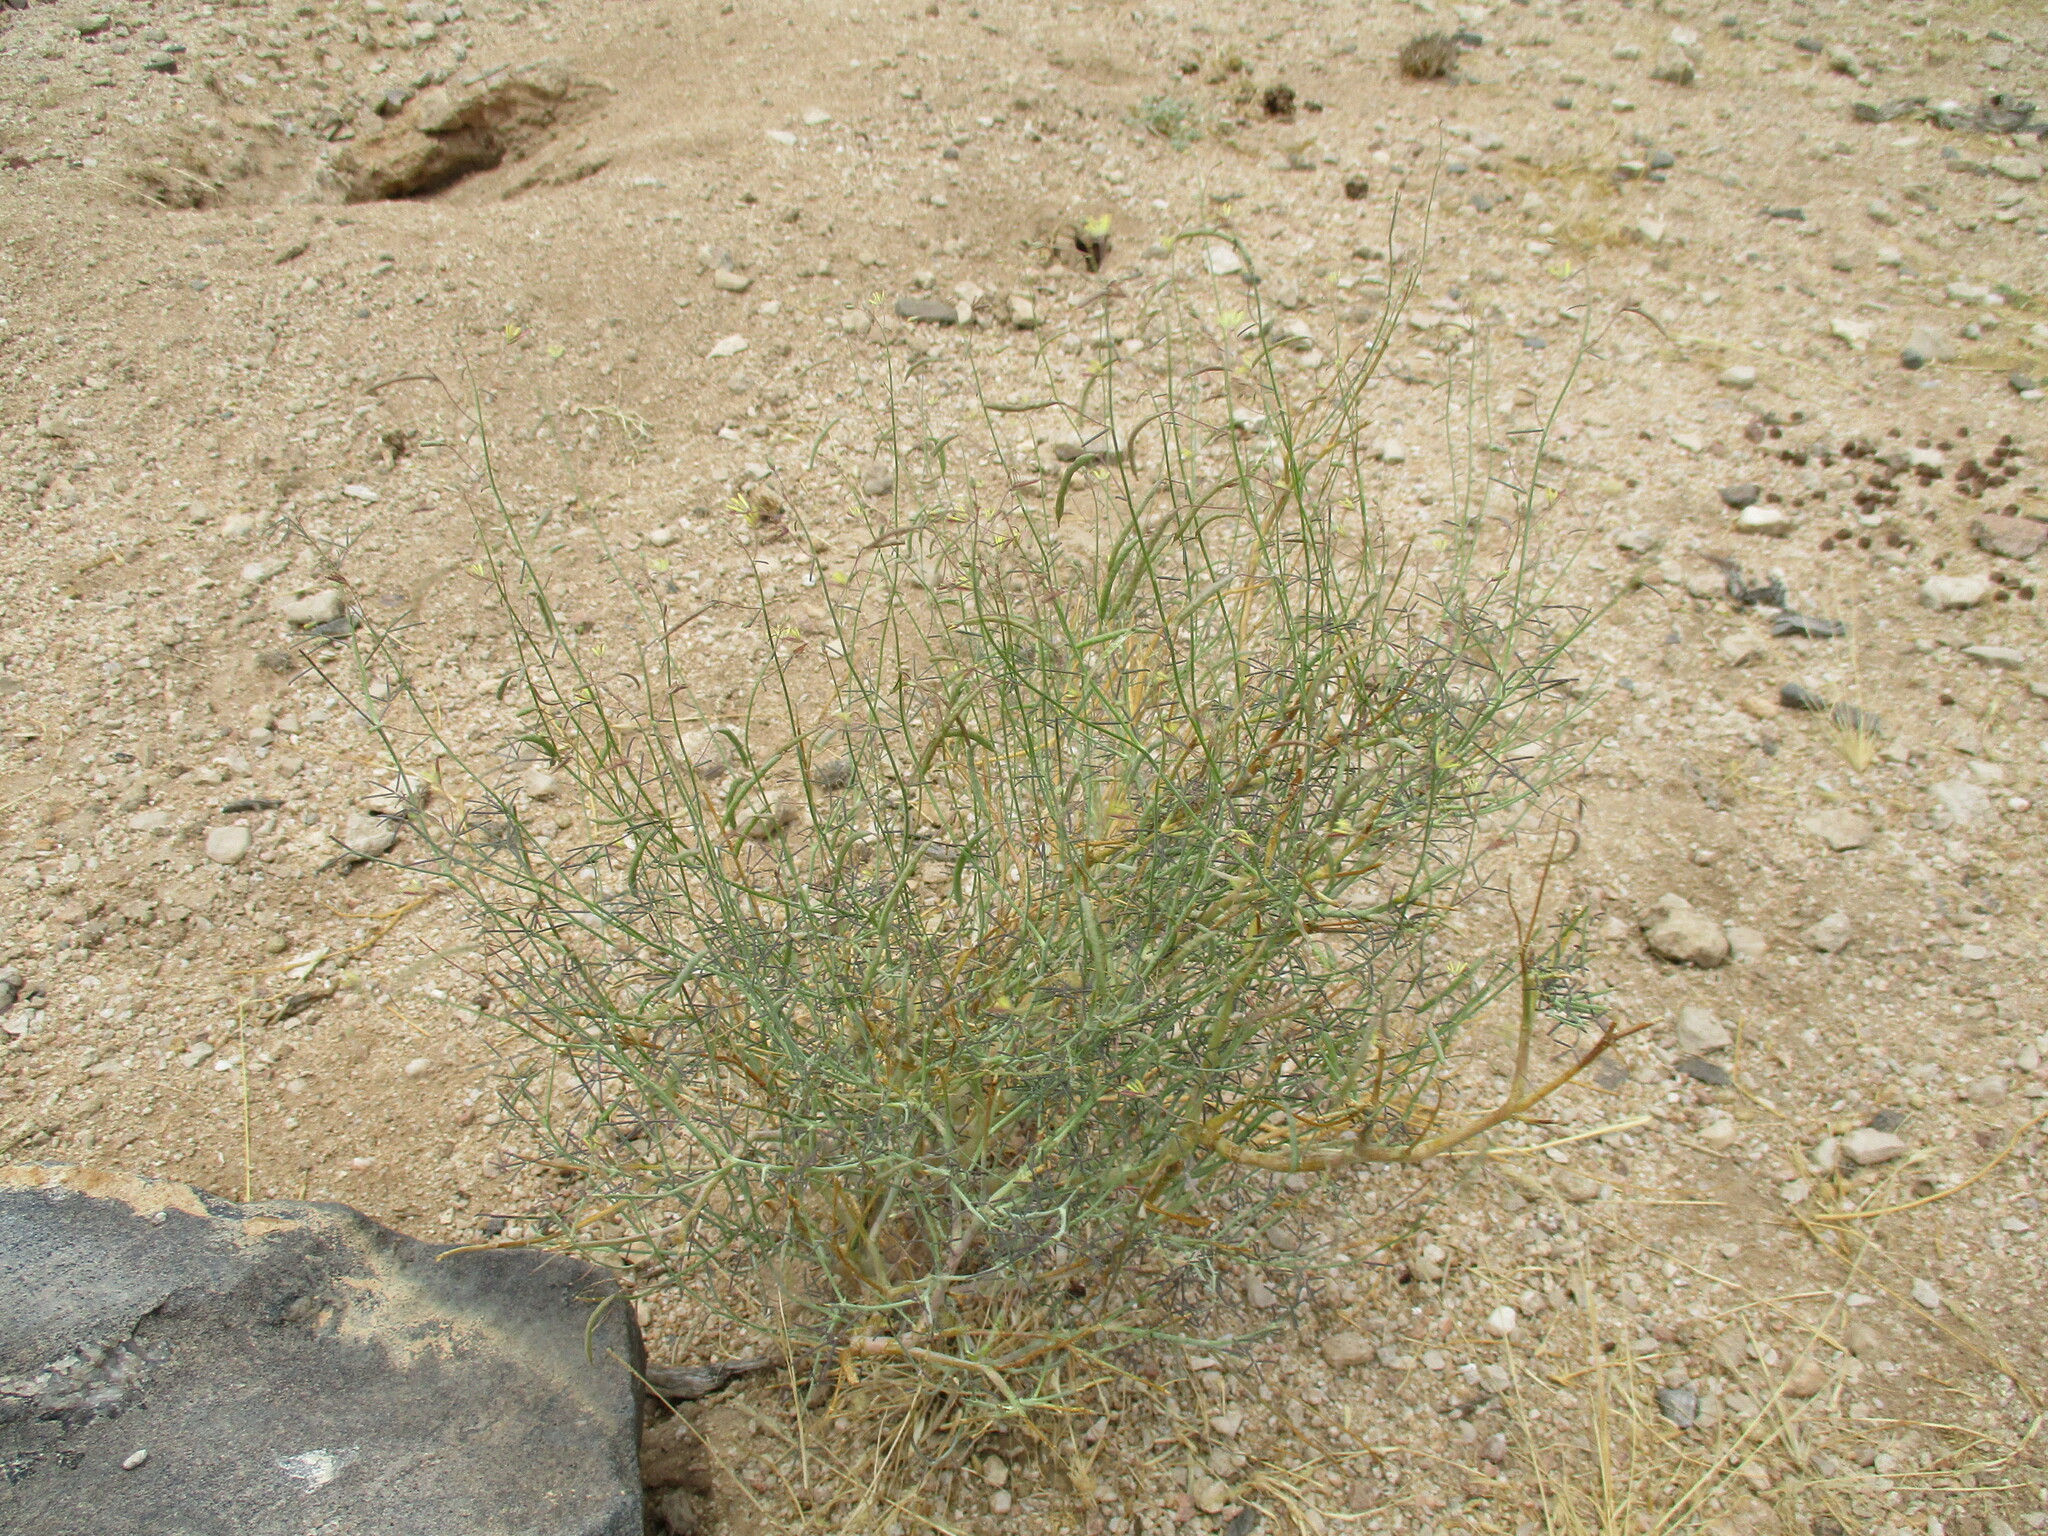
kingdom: Plantae
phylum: Tracheophyta
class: Magnoliopsida
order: Brassicales
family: Cleomaceae
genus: Coalisina
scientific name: Coalisina semitetrandra
